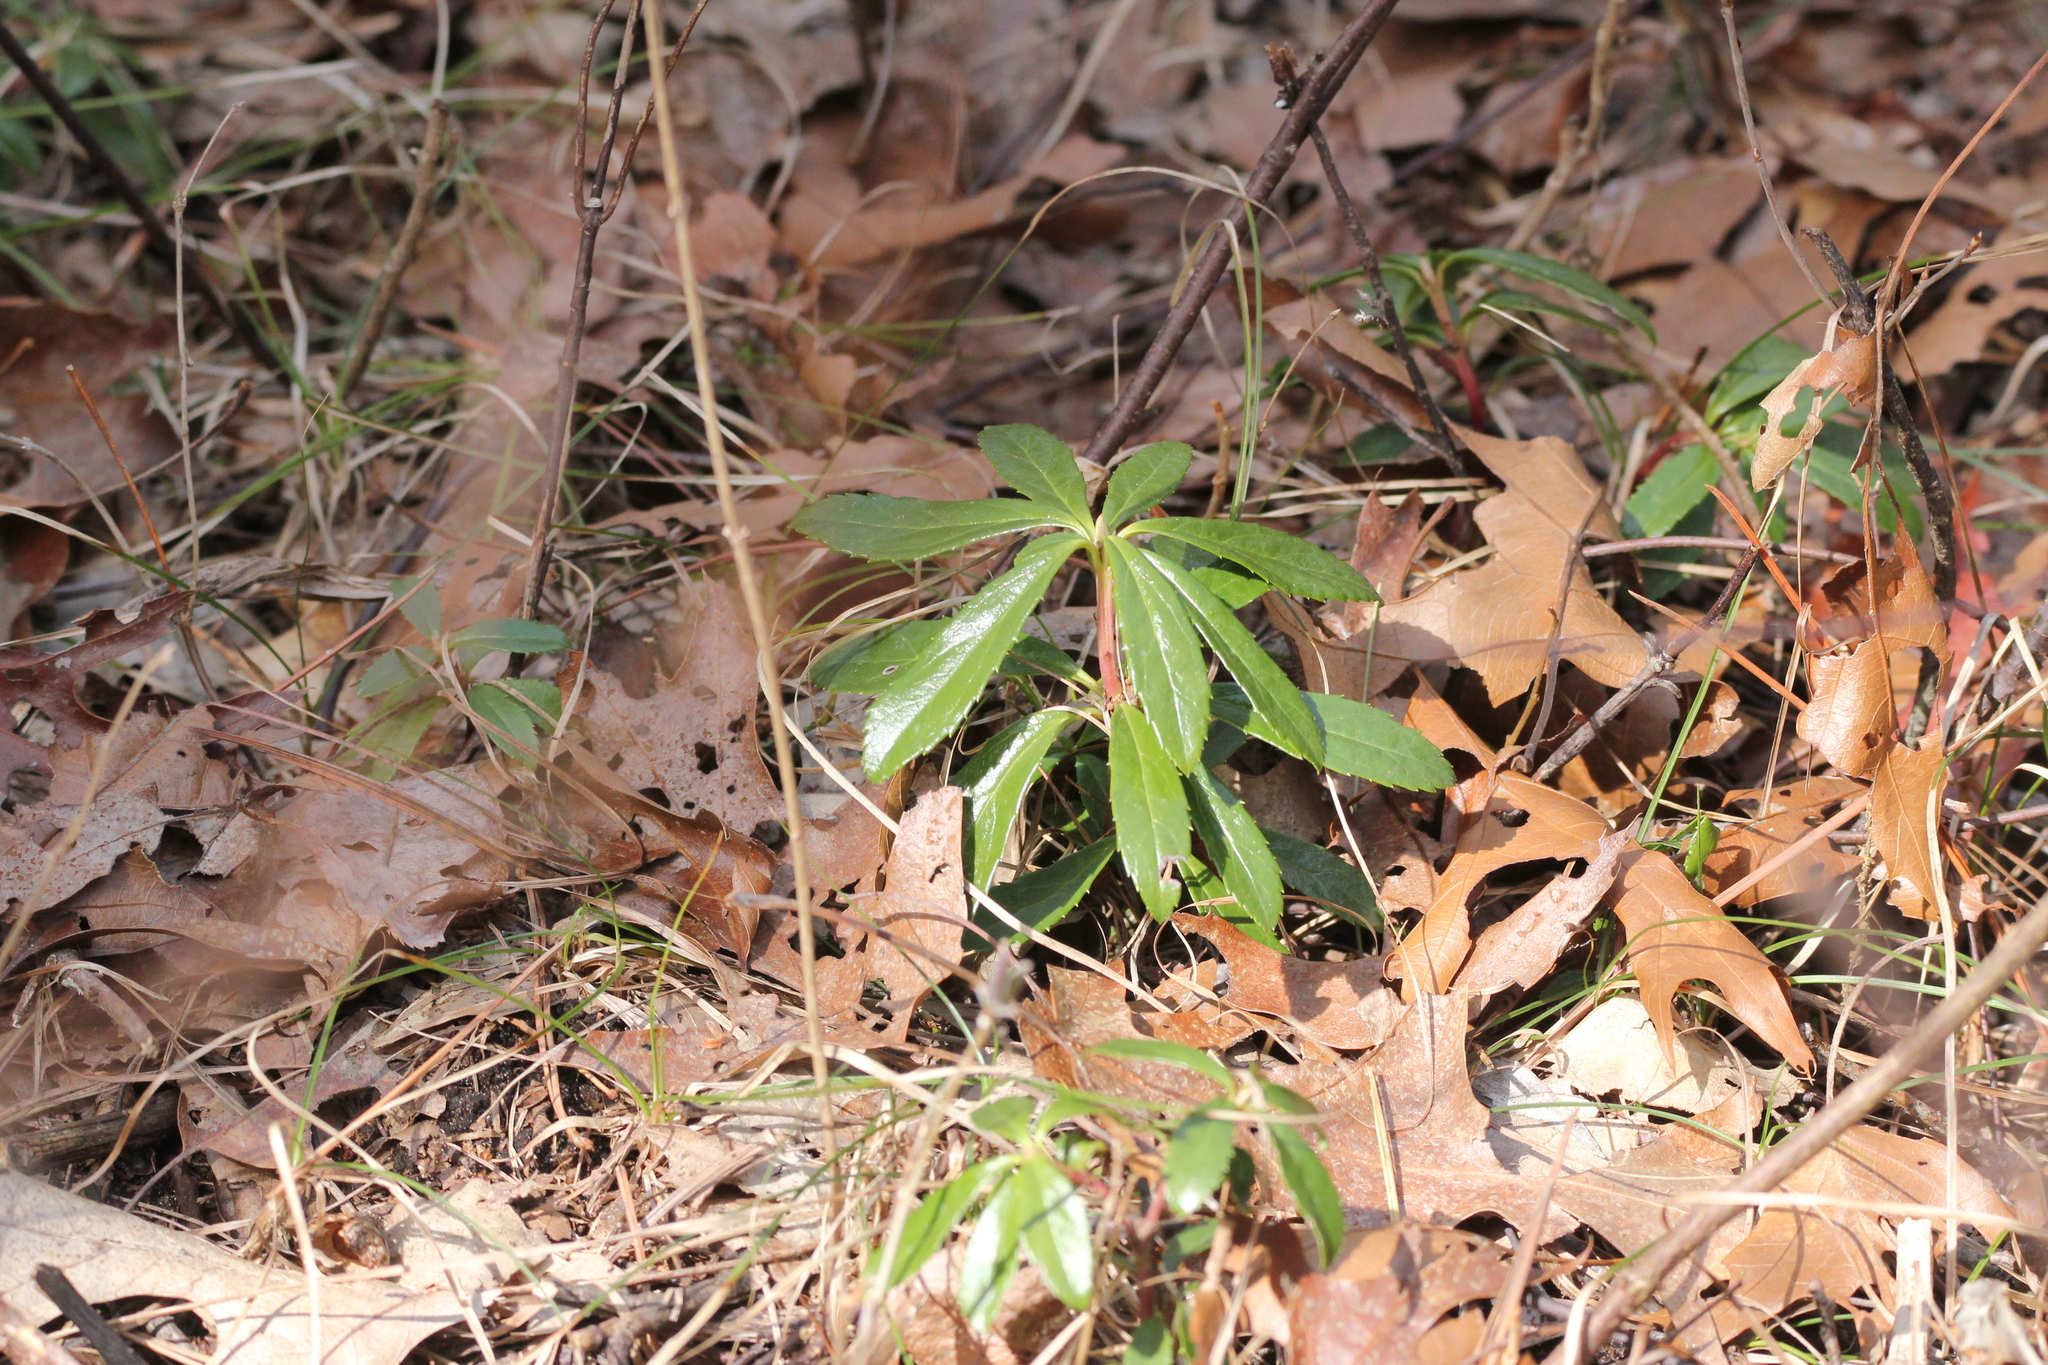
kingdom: Plantae
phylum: Tracheophyta
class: Magnoliopsida
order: Ericales
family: Ericaceae
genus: Chimaphila
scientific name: Chimaphila umbellata
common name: Pipsissewa
